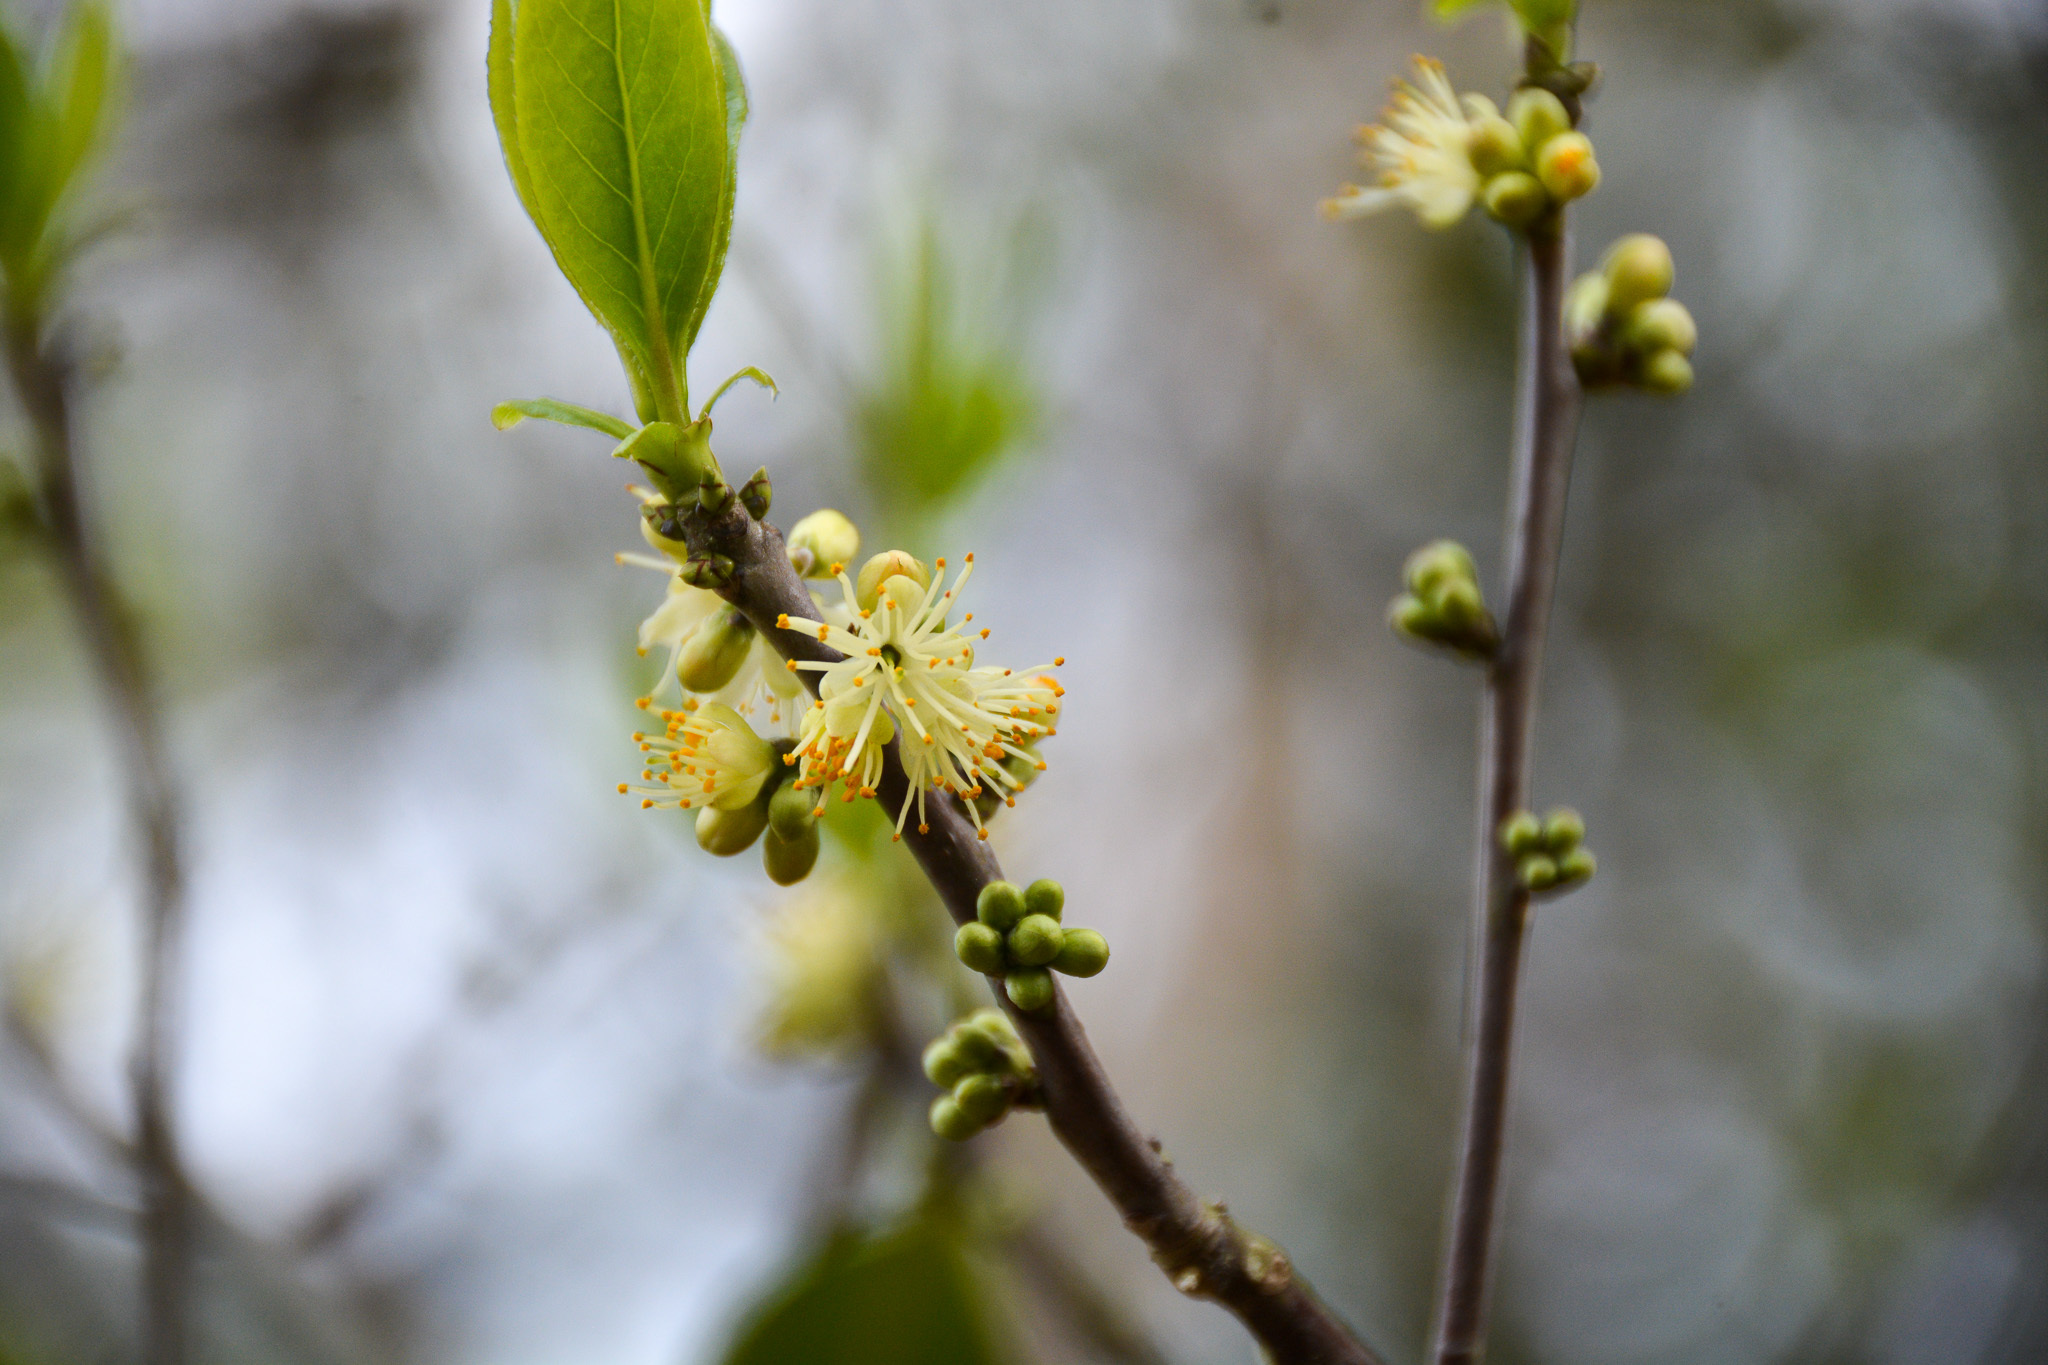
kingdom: Plantae
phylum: Tracheophyta
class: Magnoliopsida
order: Ericales
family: Symplocaceae
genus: Symplocos
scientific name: Symplocos tinctoria
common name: Horse-sugar
